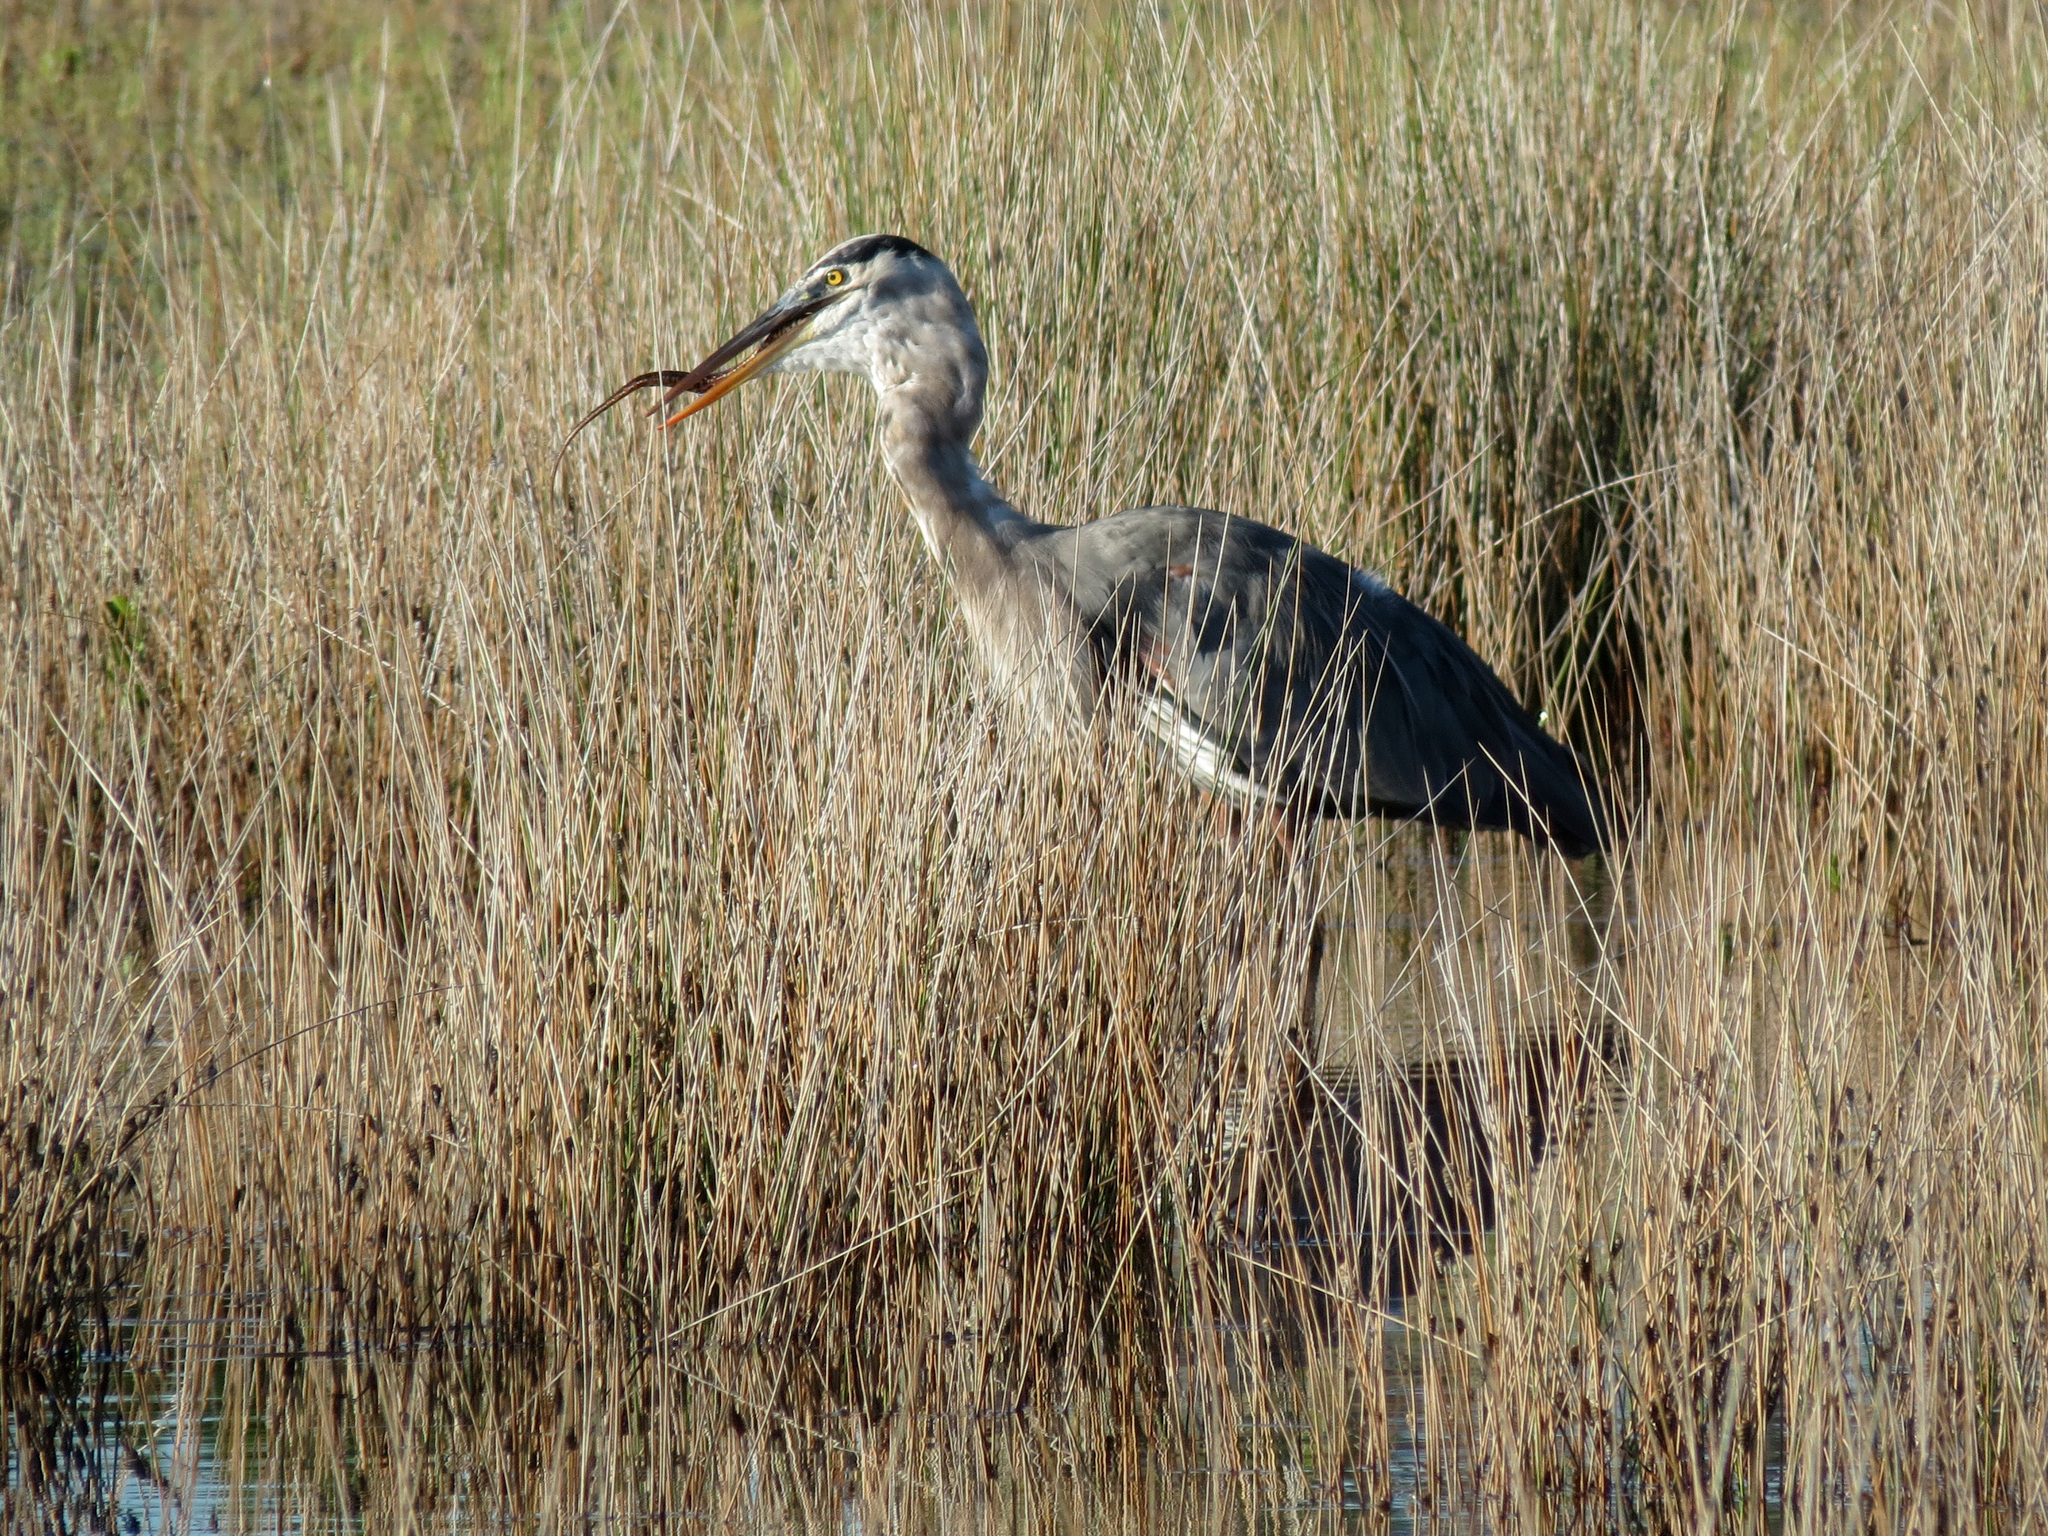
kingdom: Animalia
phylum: Chordata
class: Aves
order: Pelecaniformes
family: Ardeidae
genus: Ardea
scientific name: Ardea herodias
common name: Great blue heron
